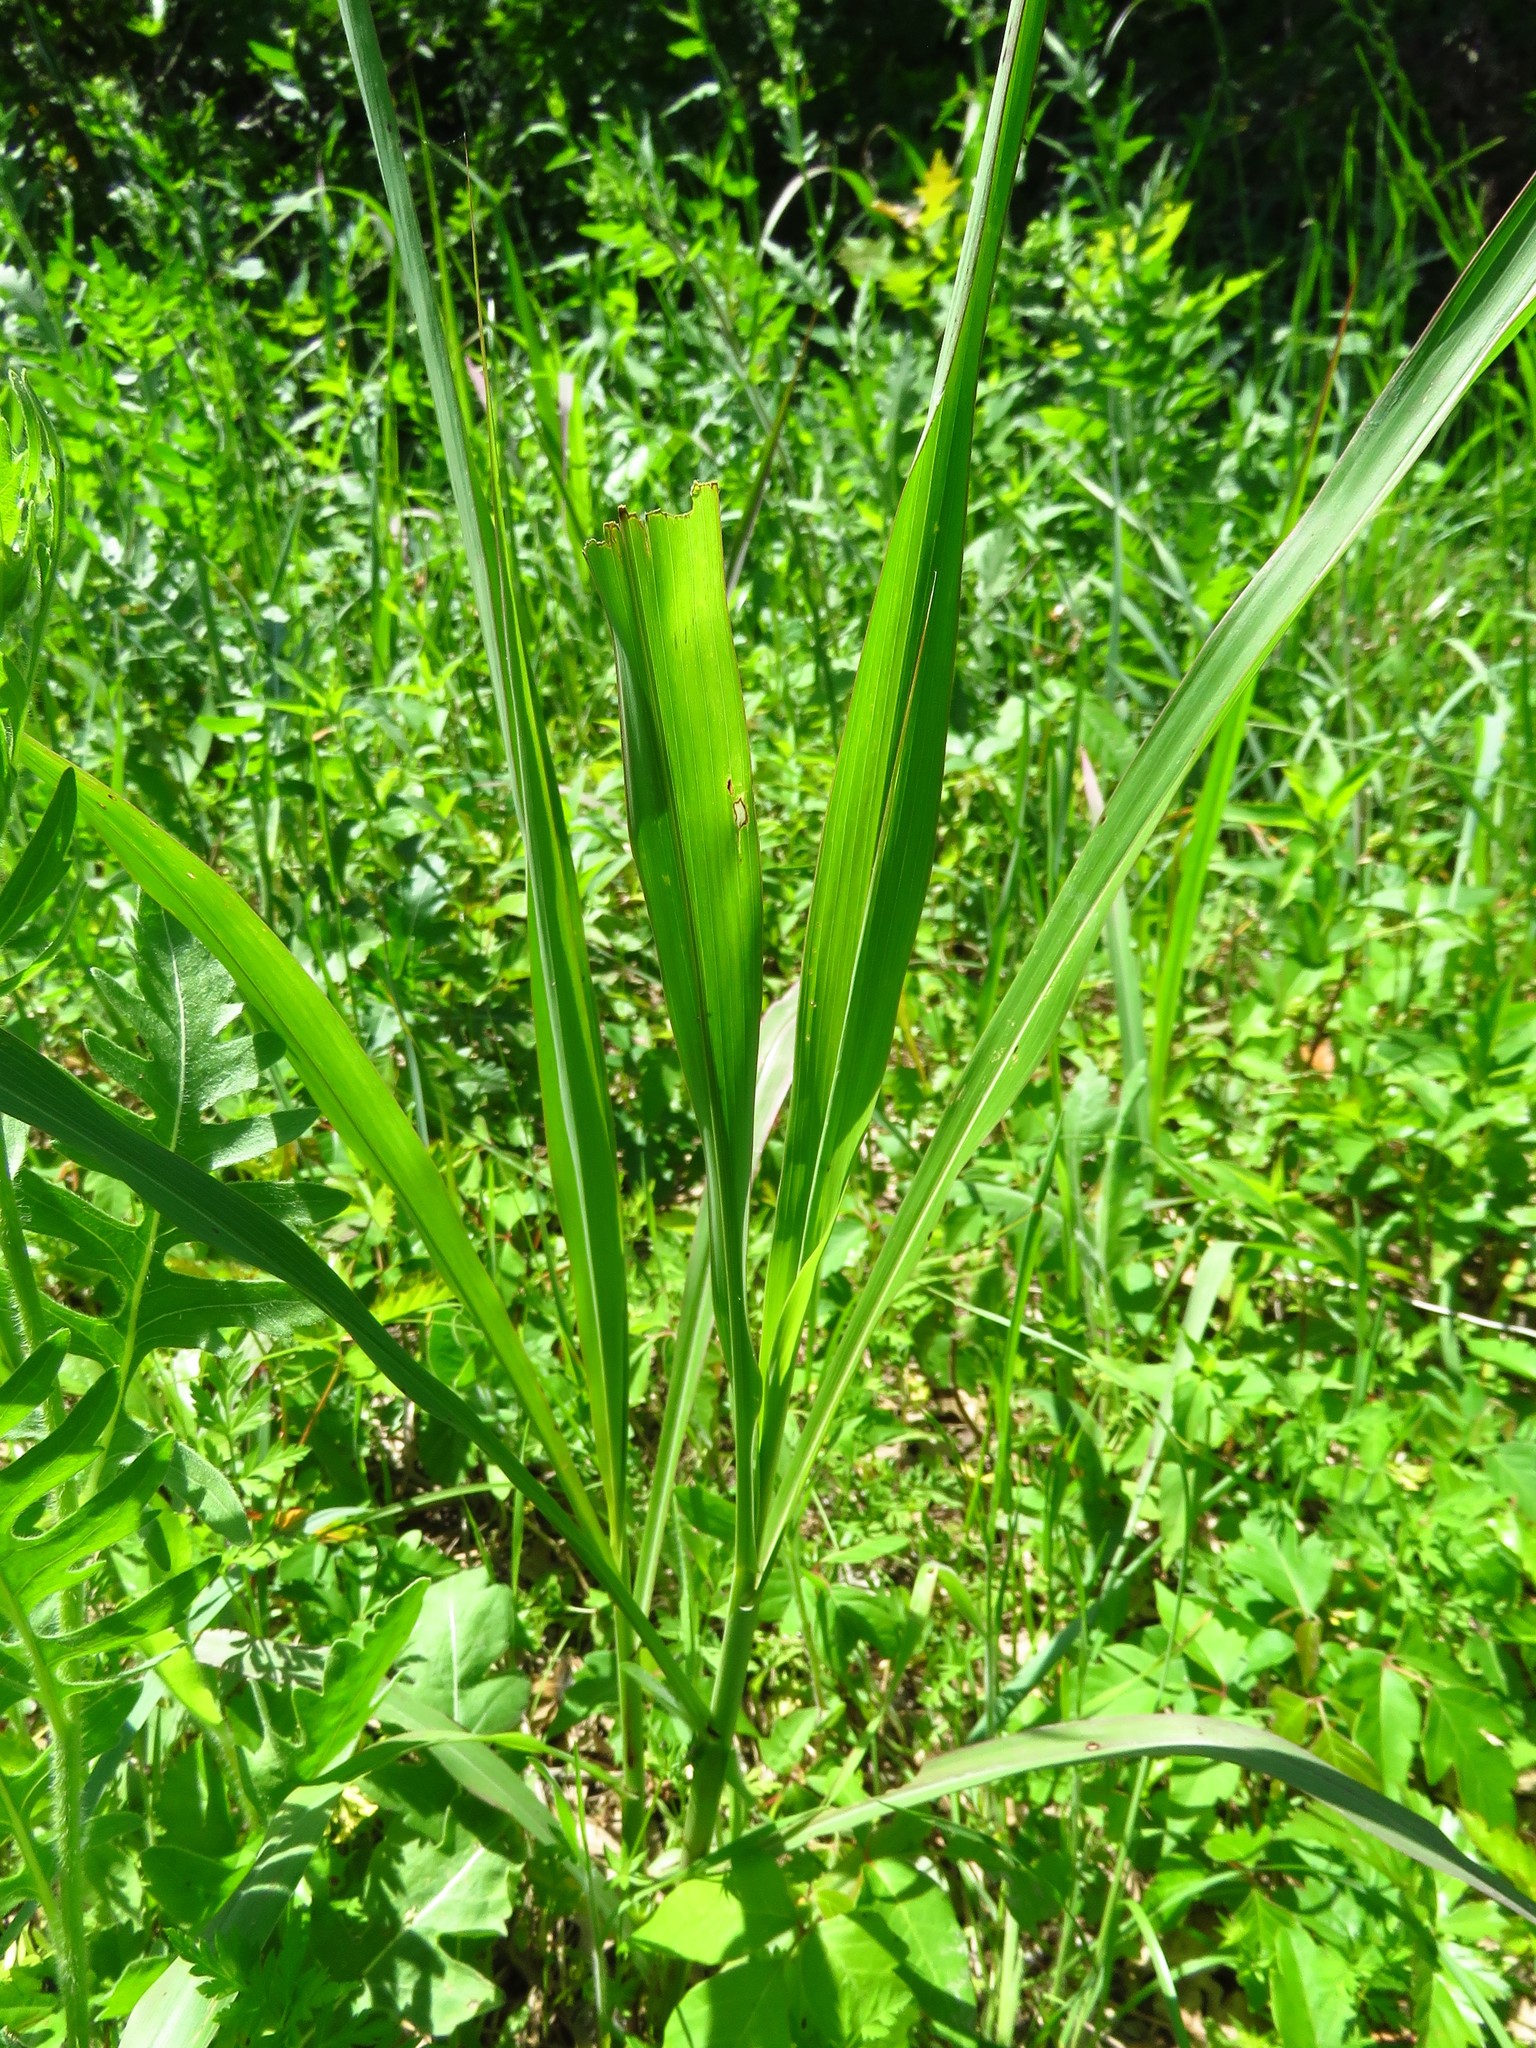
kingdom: Plantae
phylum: Tracheophyta
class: Liliopsida
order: Poales
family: Poaceae
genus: Sorghum
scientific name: Sorghum halepense
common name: Johnson-grass
